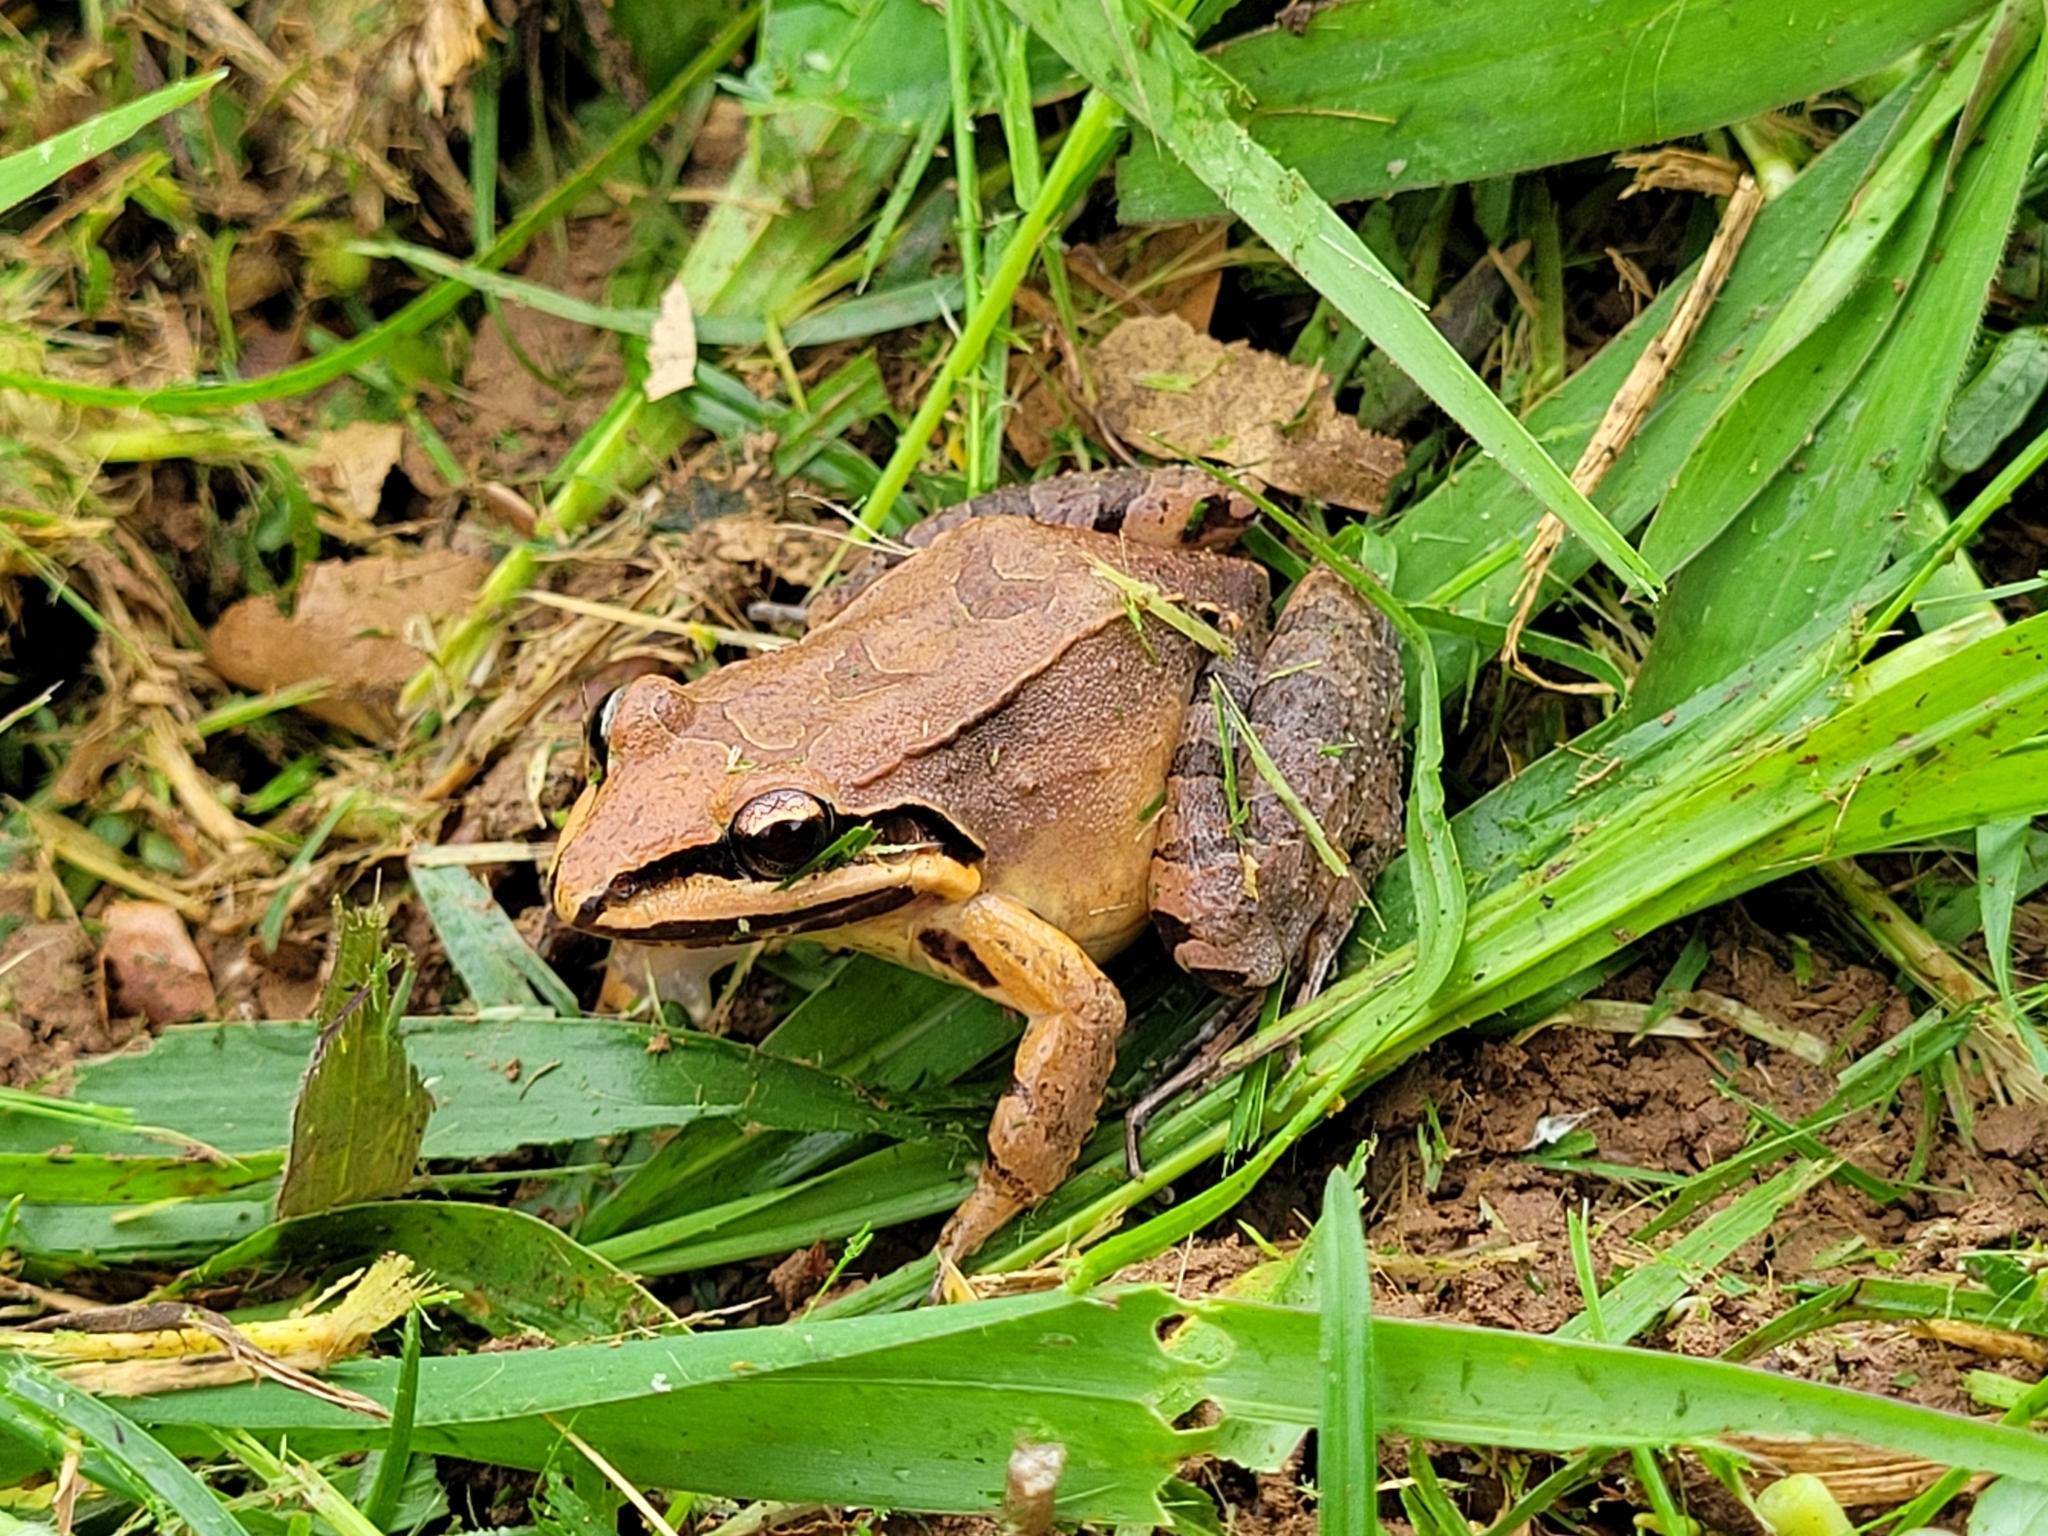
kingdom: Animalia
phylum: Chordata
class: Amphibia
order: Anura
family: Leptodactylidae
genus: Leptodactylus
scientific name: Leptodactylus albilabris
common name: Caribbean white-lipped frog
